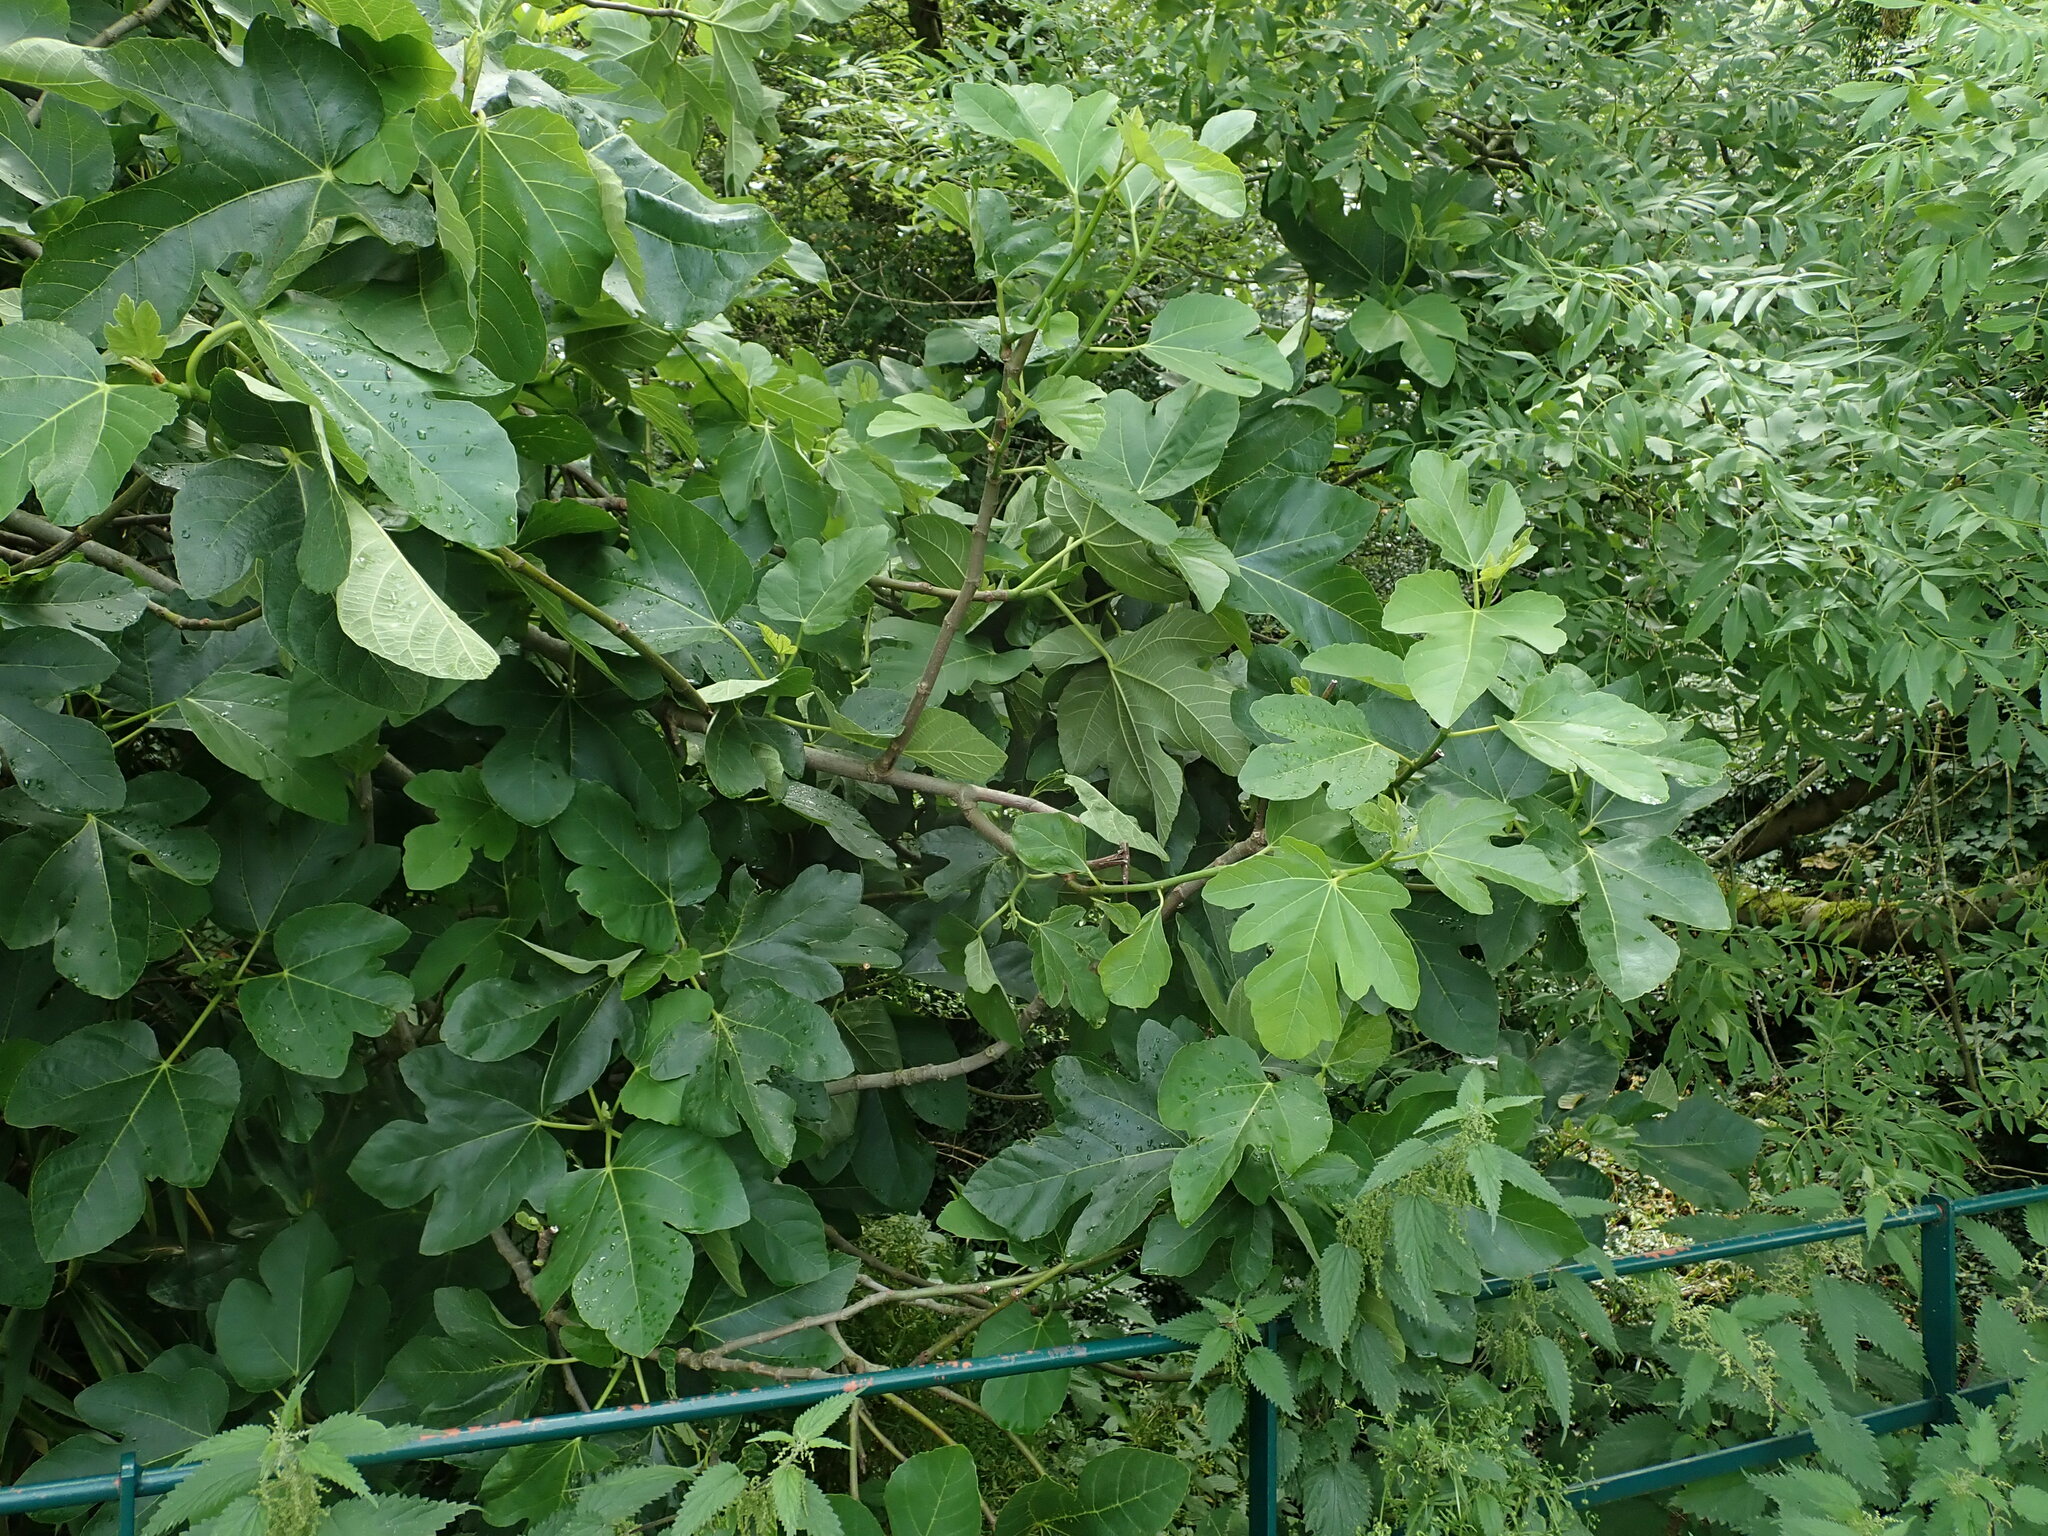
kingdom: Plantae
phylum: Tracheophyta
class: Magnoliopsida
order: Rosales
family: Moraceae
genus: Ficus
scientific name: Ficus carica
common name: Fig
